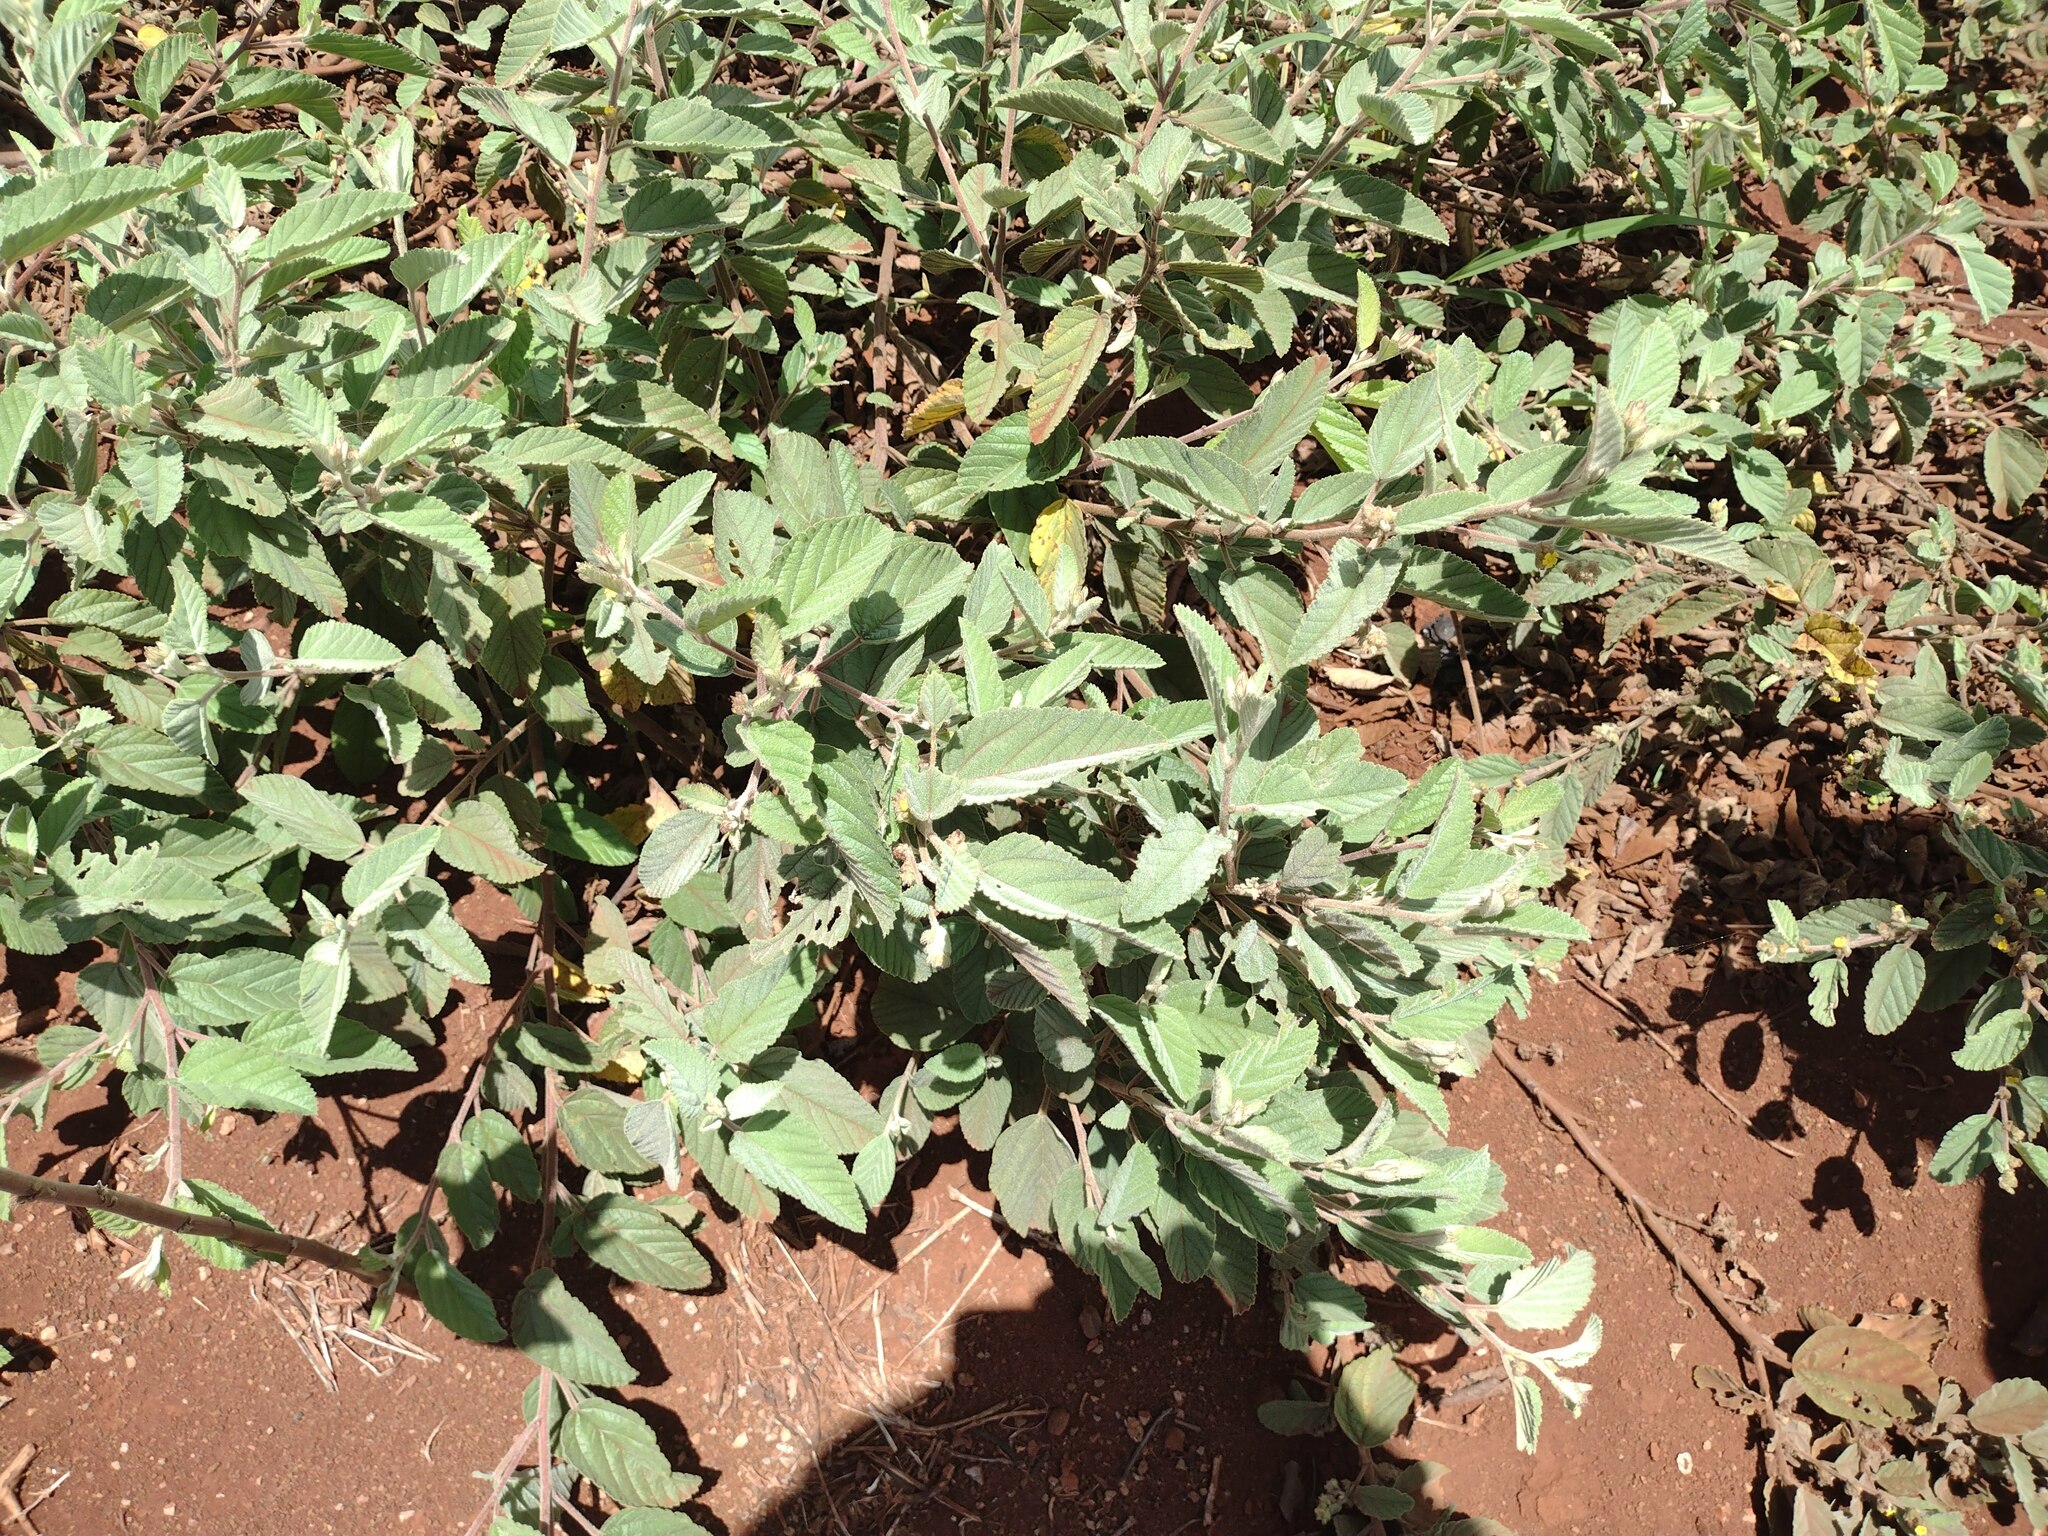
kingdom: Plantae
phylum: Tracheophyta
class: Magnoliopsida
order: Malvales
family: Malvaceae
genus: Waltheria
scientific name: Waltheria indica
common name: Leather-coat
